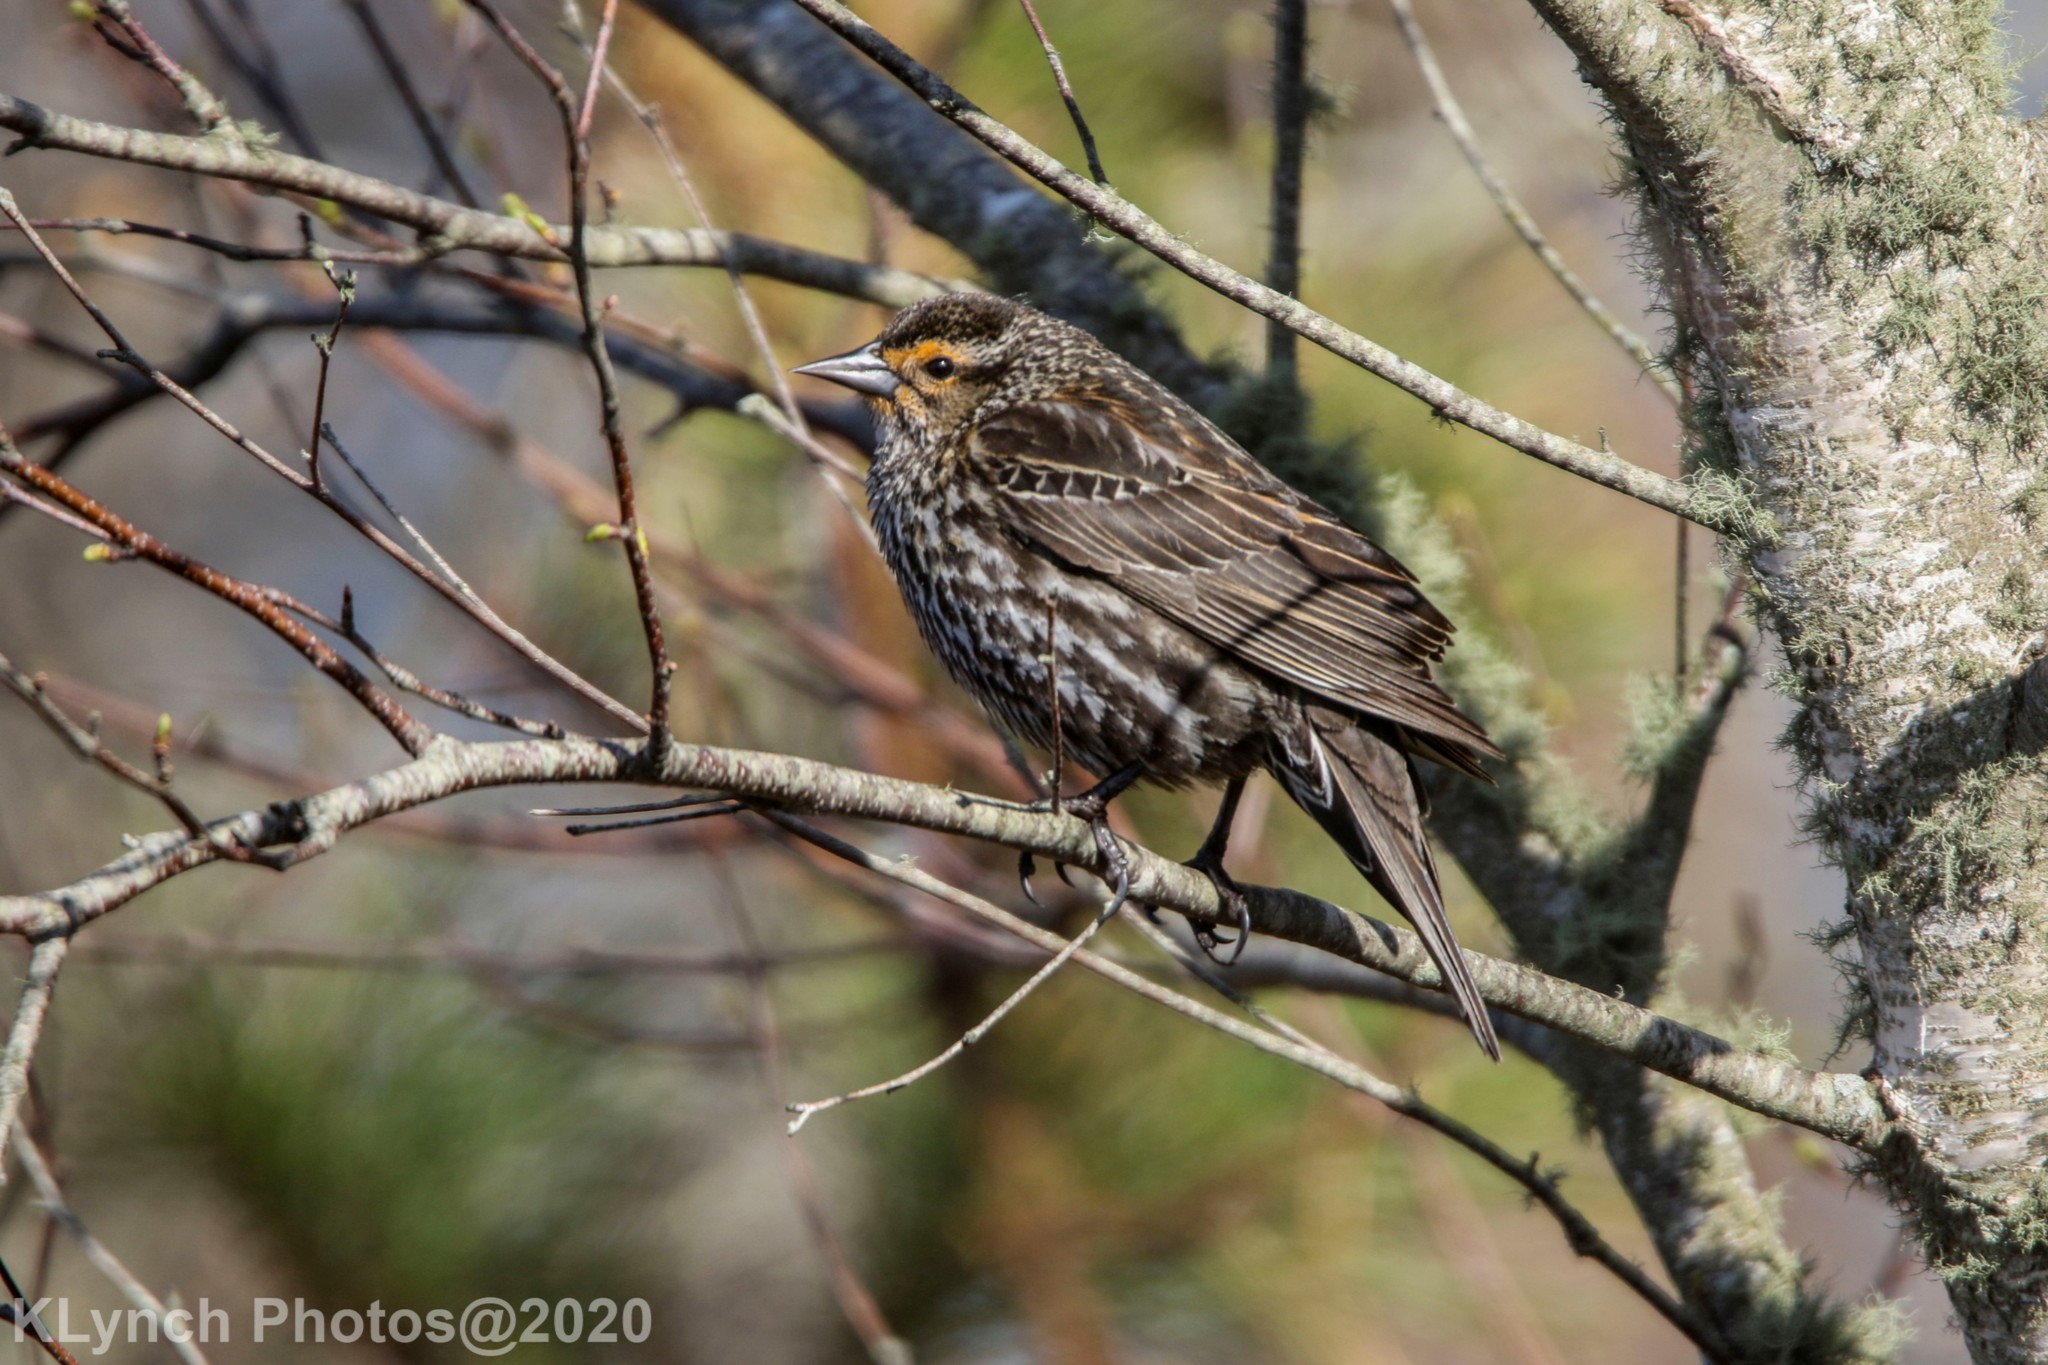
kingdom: Animalia
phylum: Chordata
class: Aves
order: Passeriformes
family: Icteridae
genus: Agelaius
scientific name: Agelaius phoeniceus
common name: Red-winged blackbird
